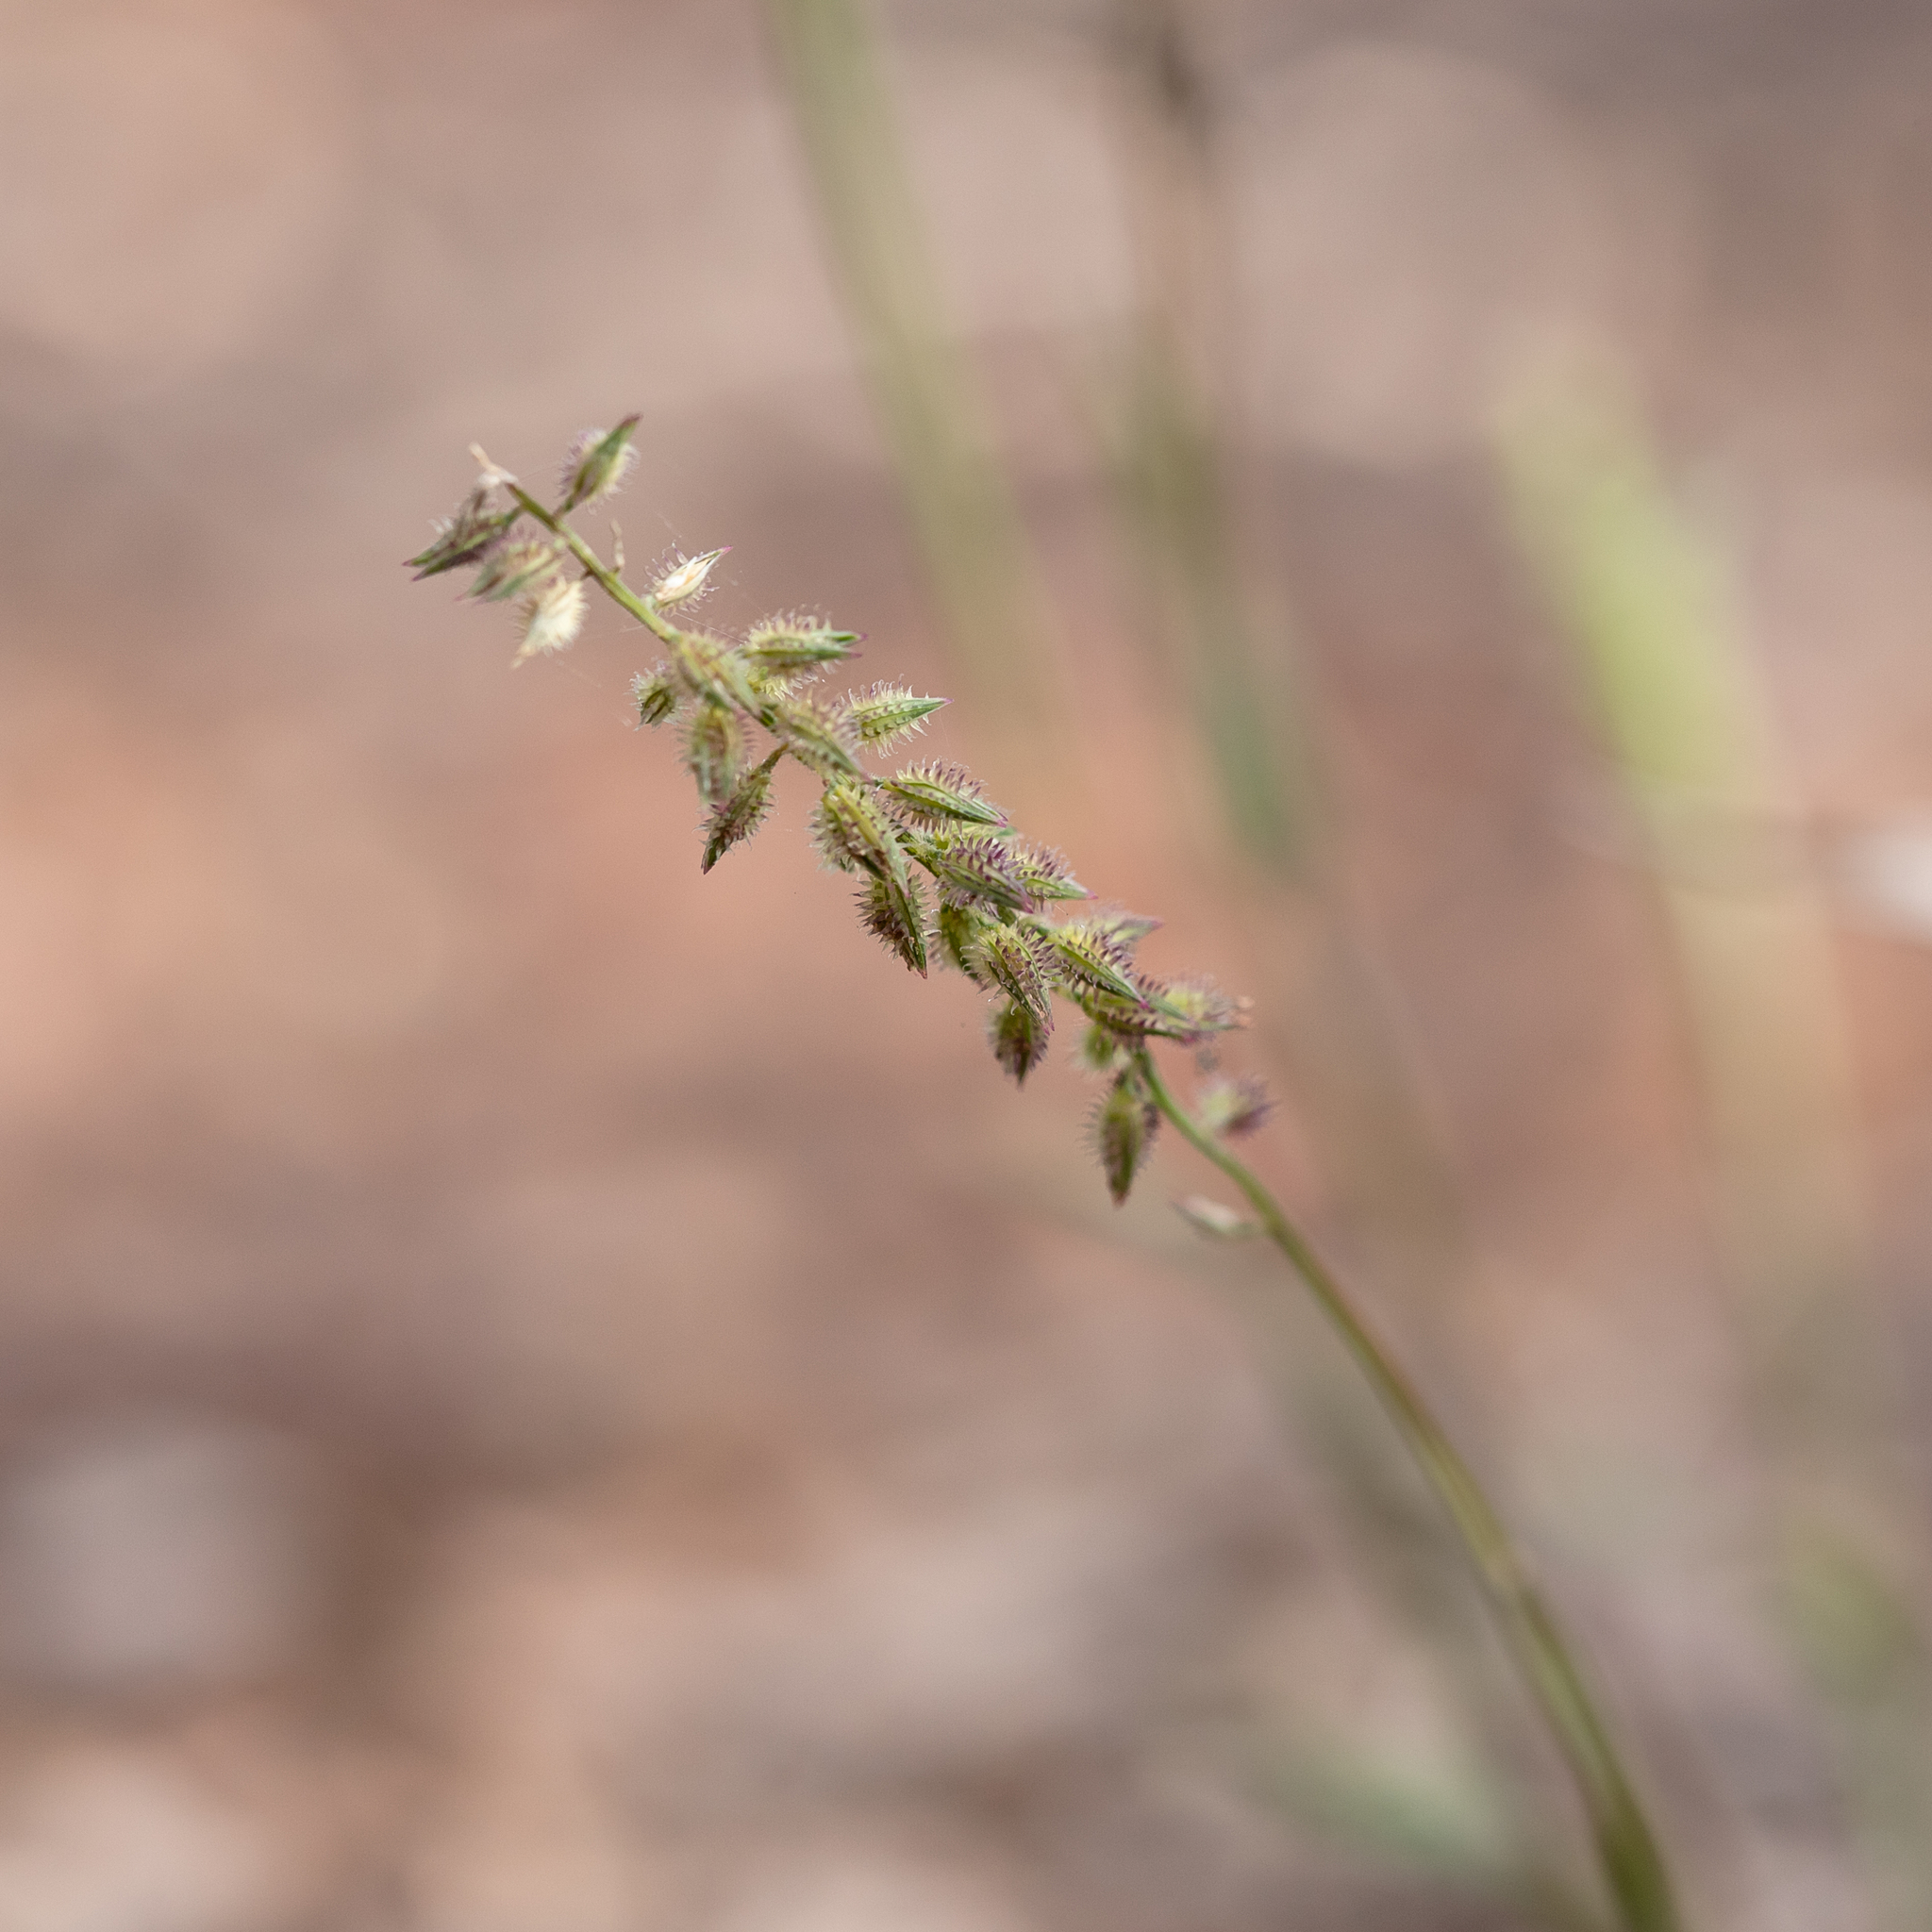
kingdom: Plantae
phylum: Tracheophyta
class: Liliopsida
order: Poales
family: Poaceae
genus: Tragus
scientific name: Tragus australianus
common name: Australian bur-grass
